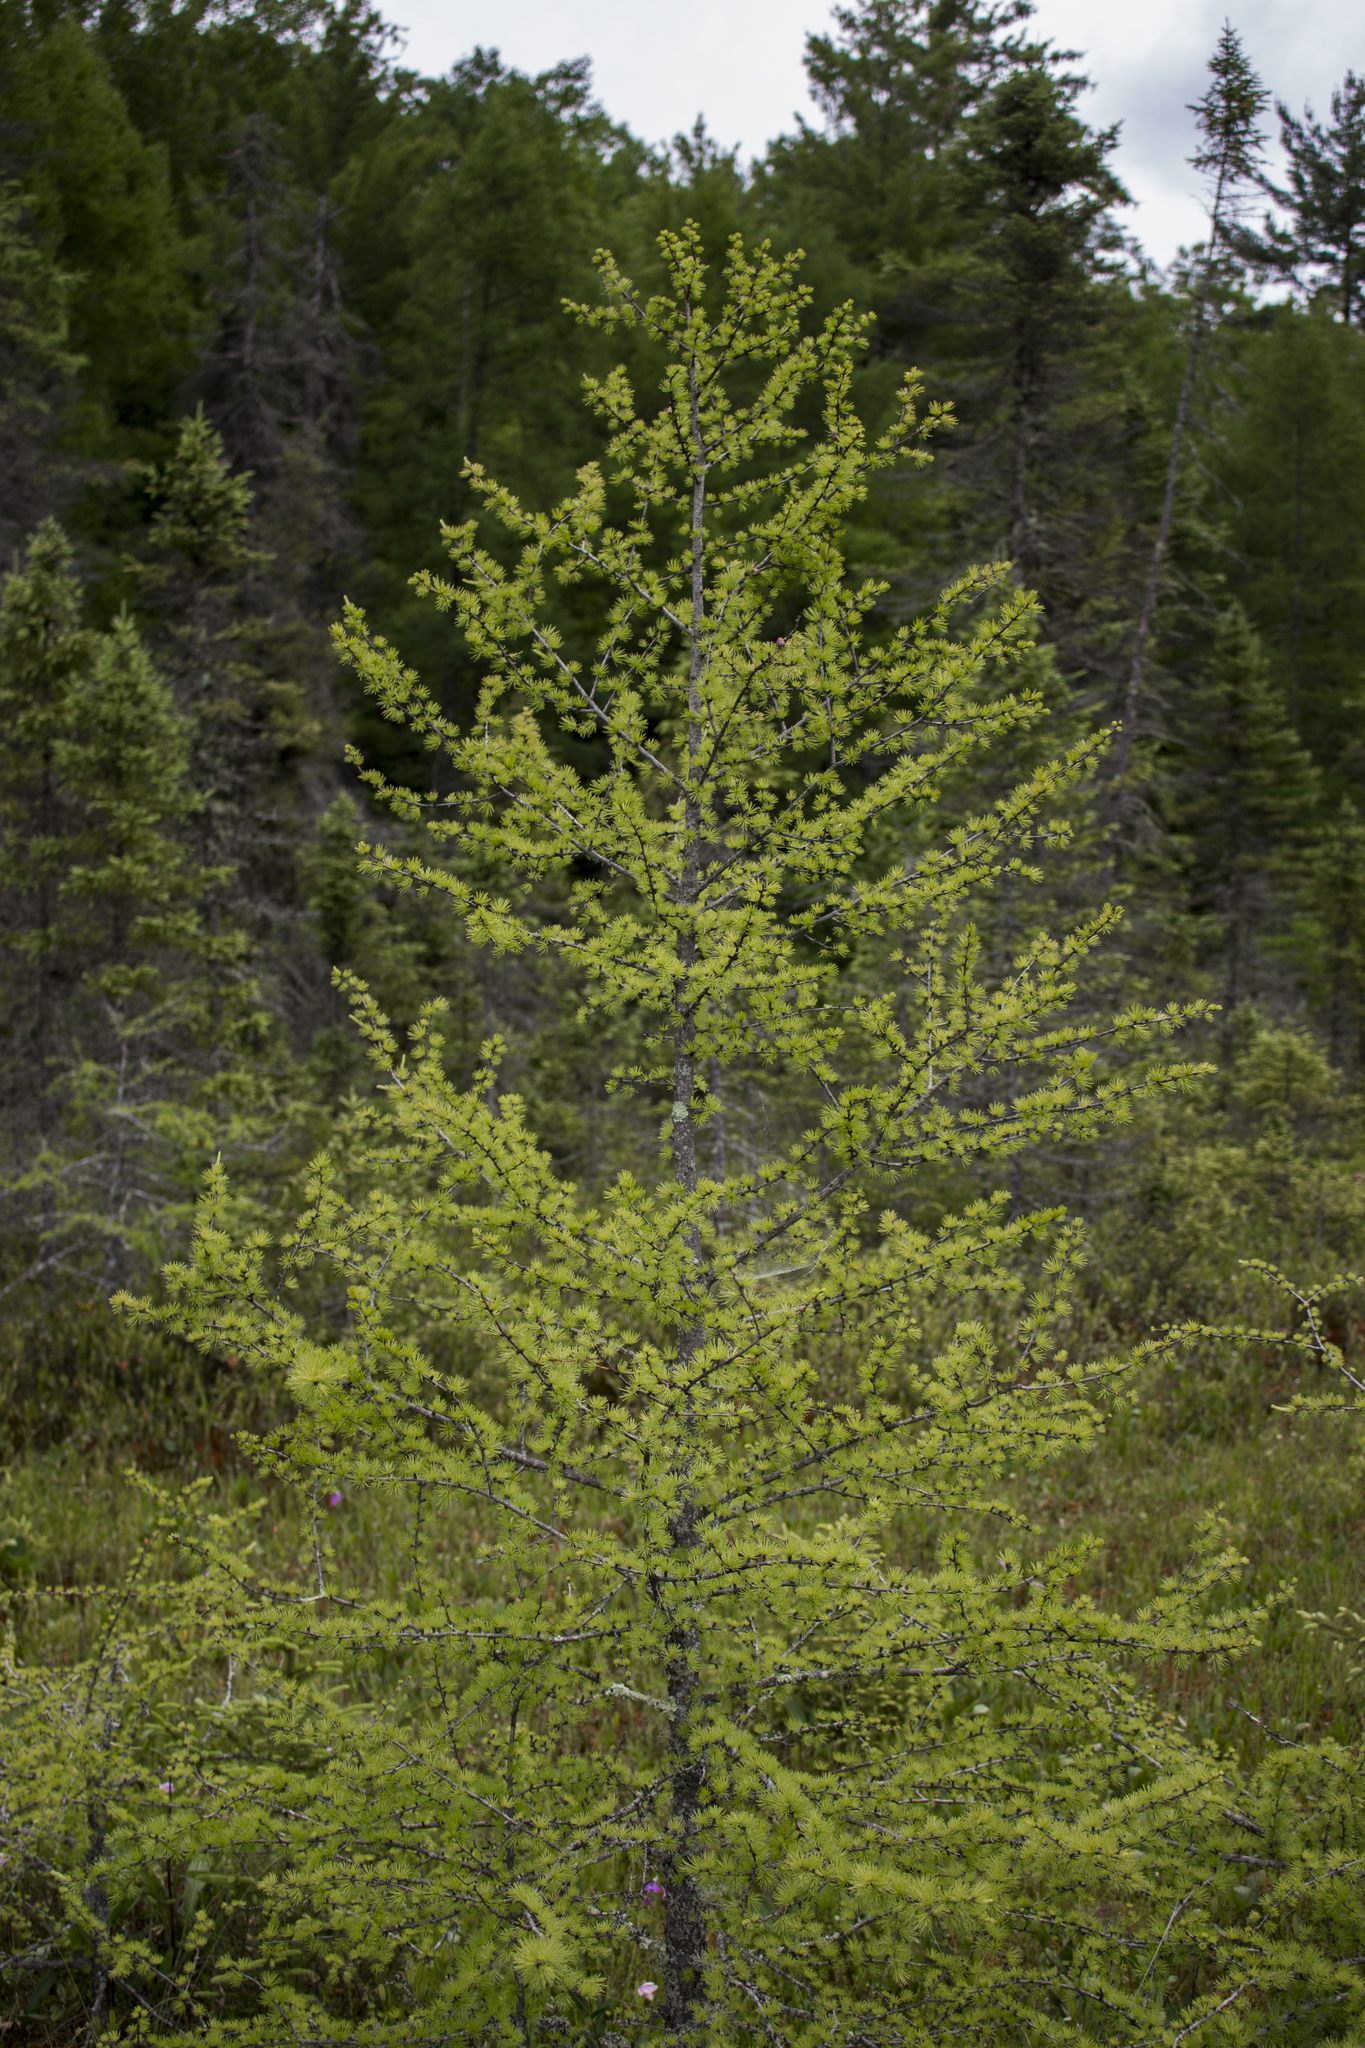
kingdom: Plantae
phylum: Tracheophyta
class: Pinopsida
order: Pinales
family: Pinaceae
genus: Larix
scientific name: Larix laricina
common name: American larch
